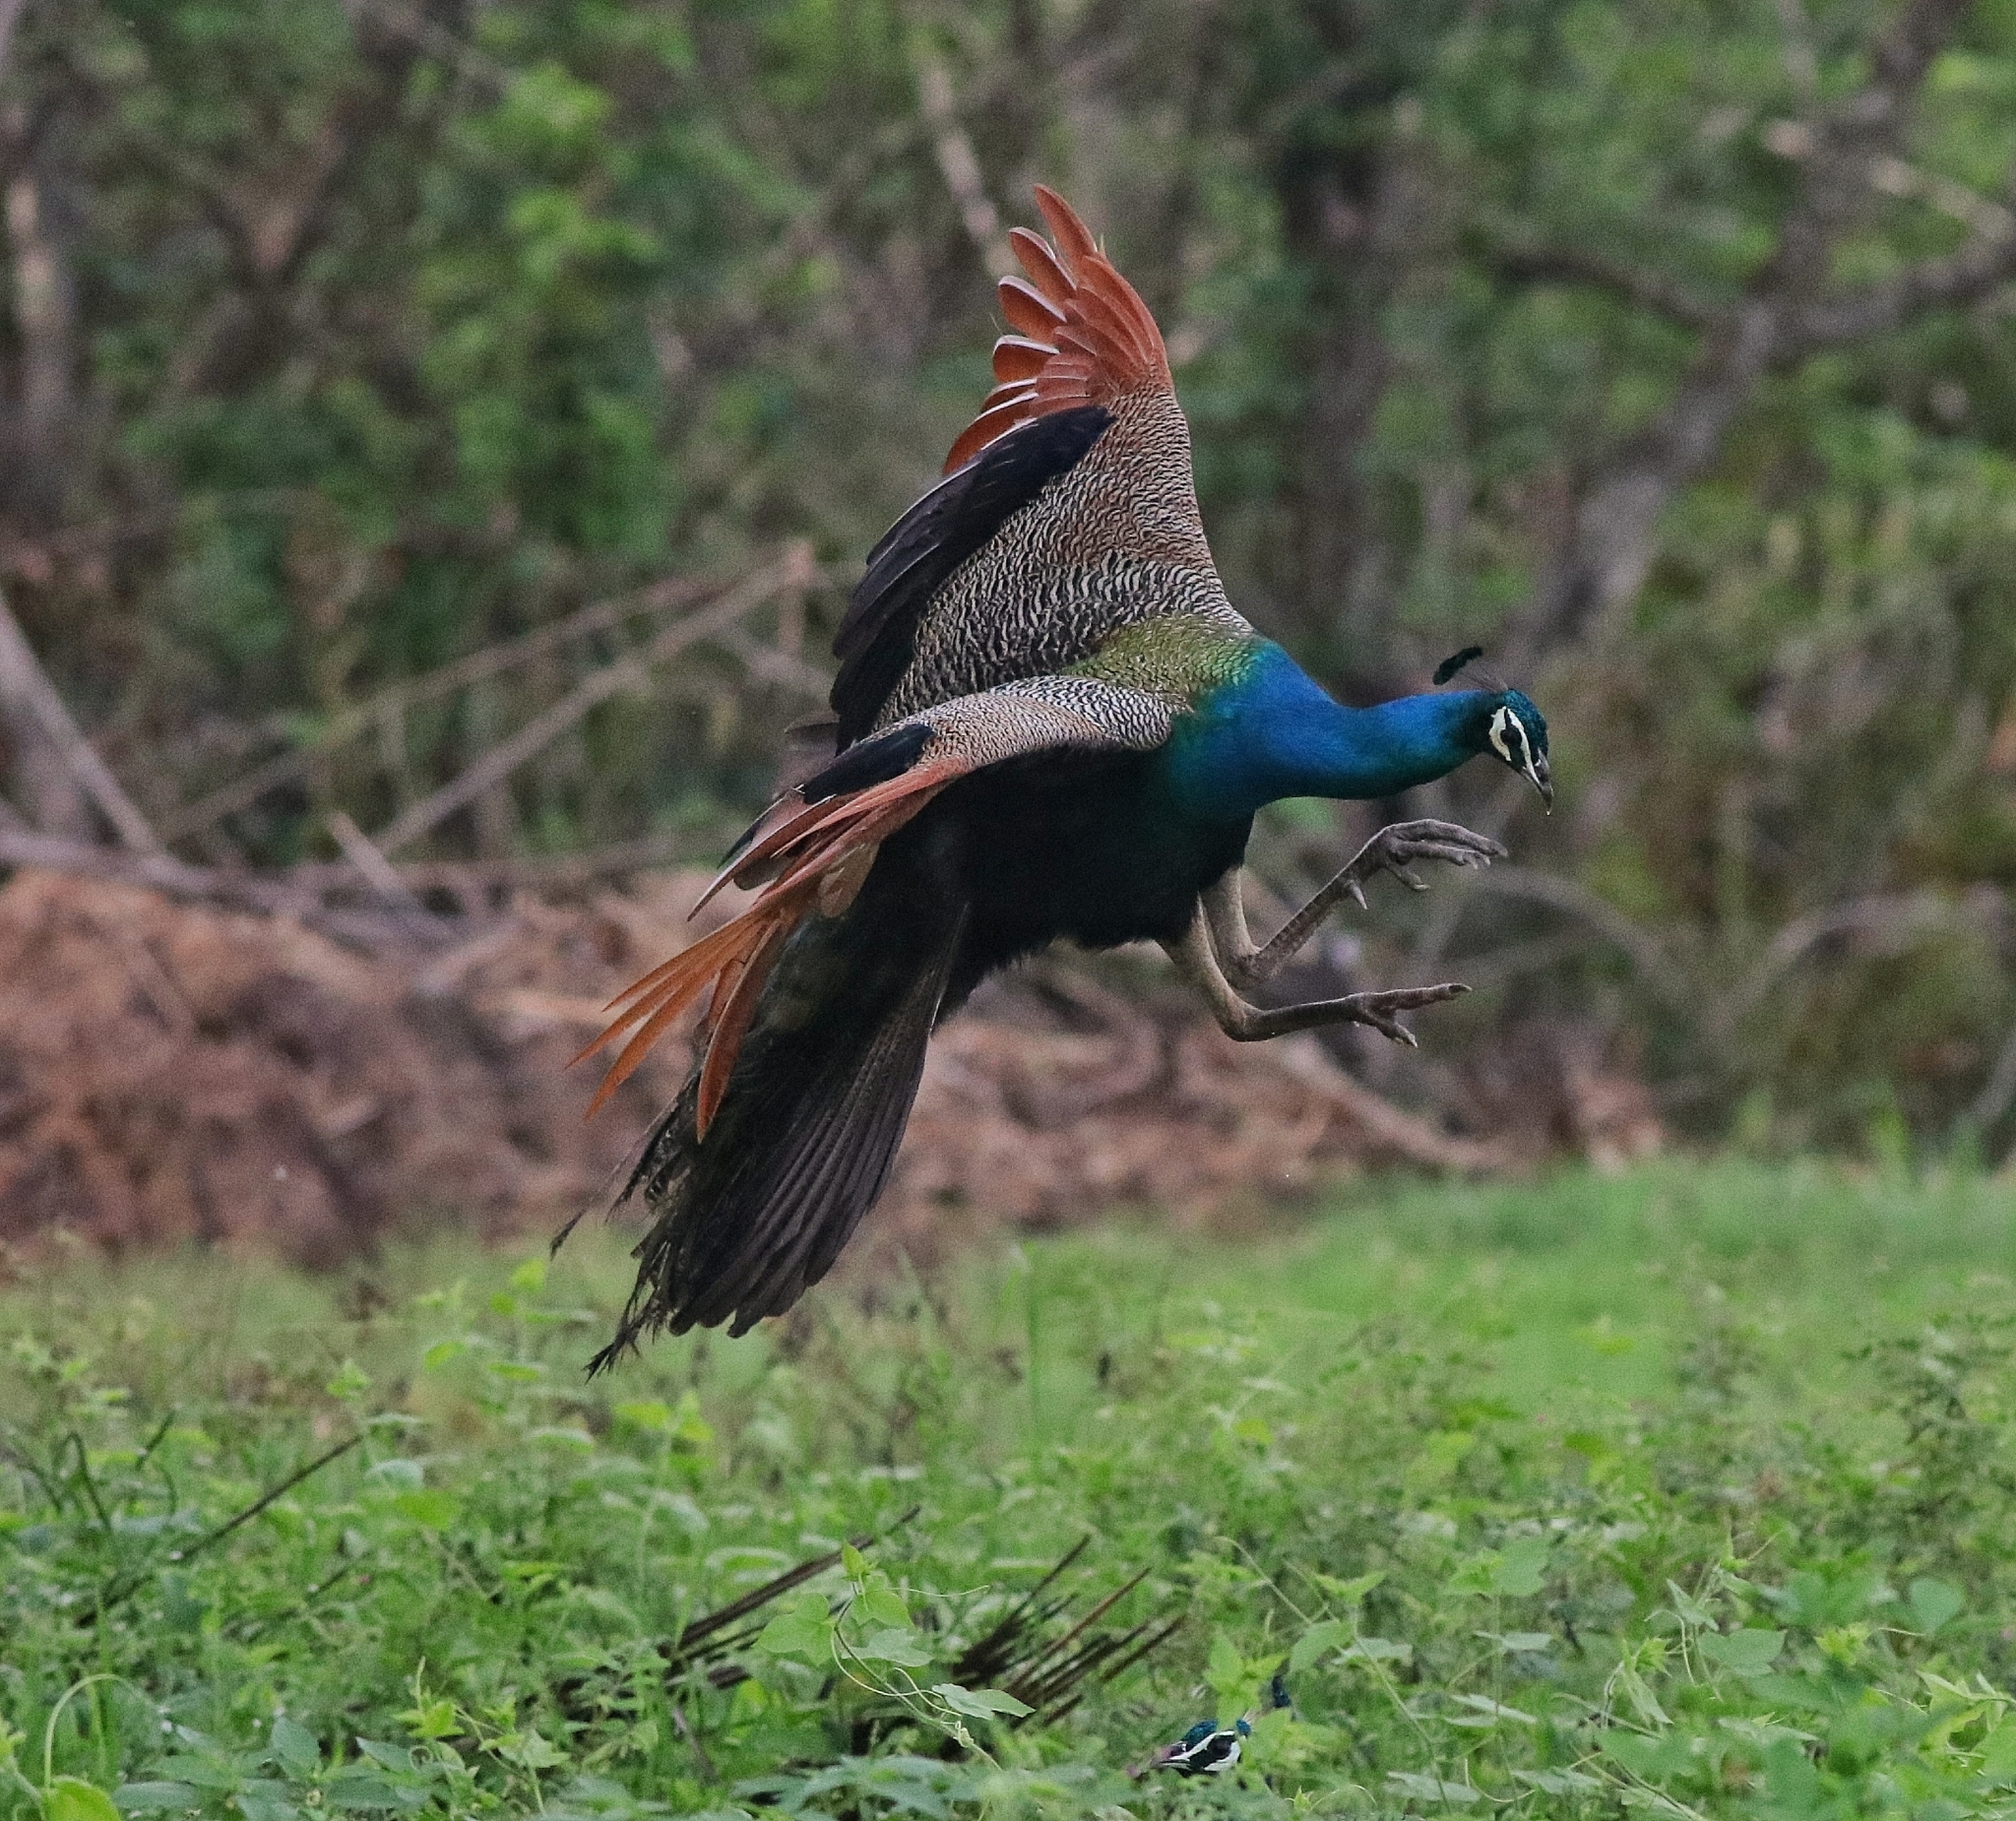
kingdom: Animalia
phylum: Chordata
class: Aves
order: Galliformes
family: Phasianidae
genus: Pavo
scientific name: Pavo cristatus
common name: Indian peafowl
